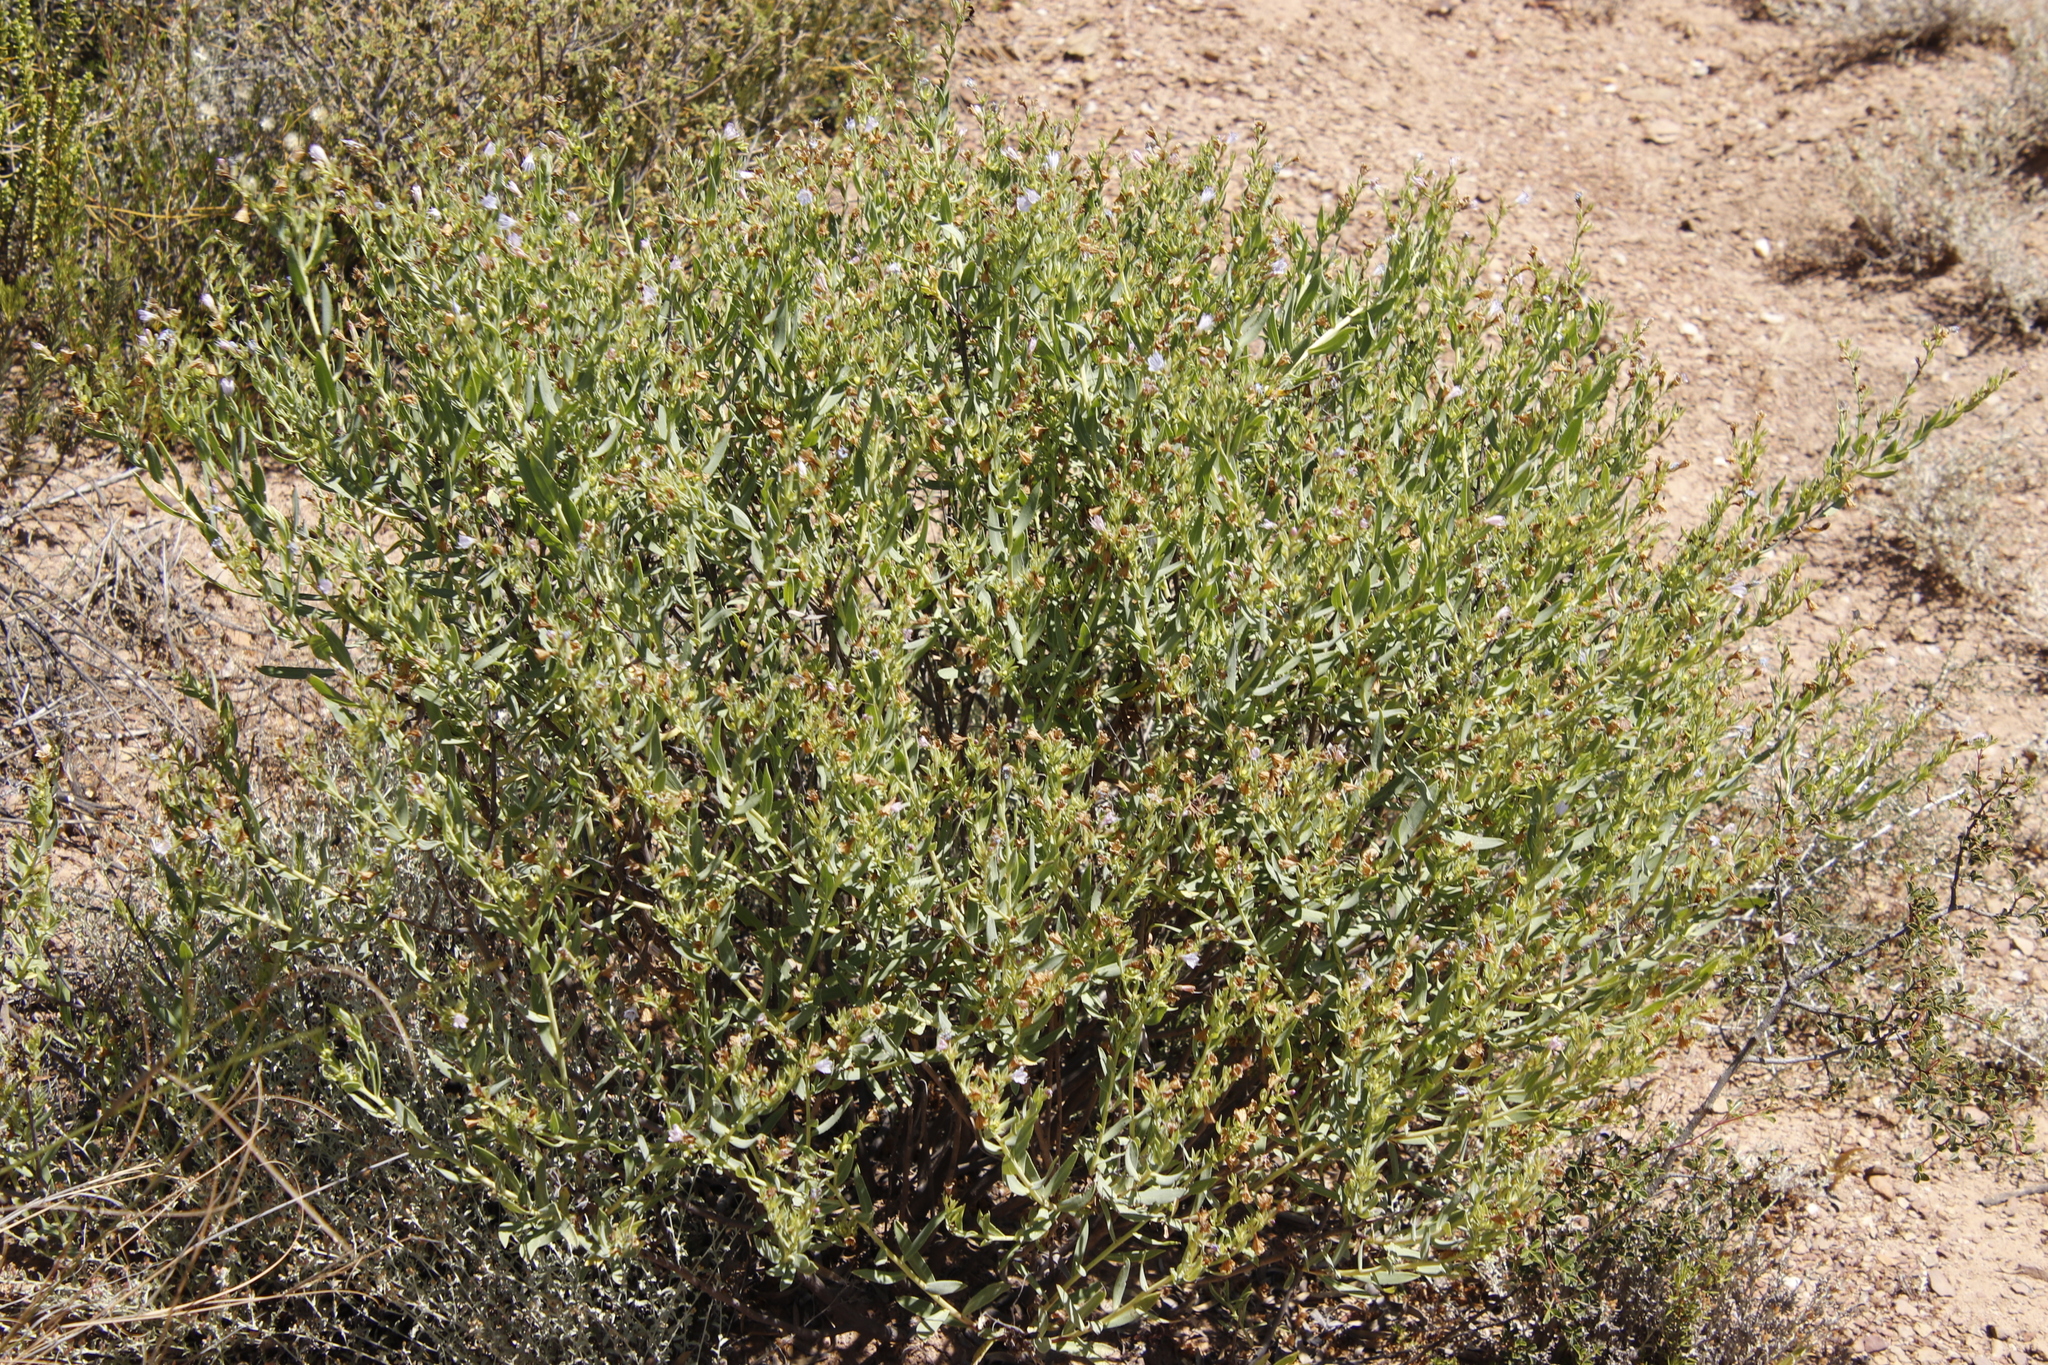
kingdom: Plantae
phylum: Tracheophyta
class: Magnoliopsida
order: Boraginales
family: Boraginaceae
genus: Lobostemon
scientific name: Lobostemon glaucophyllus
